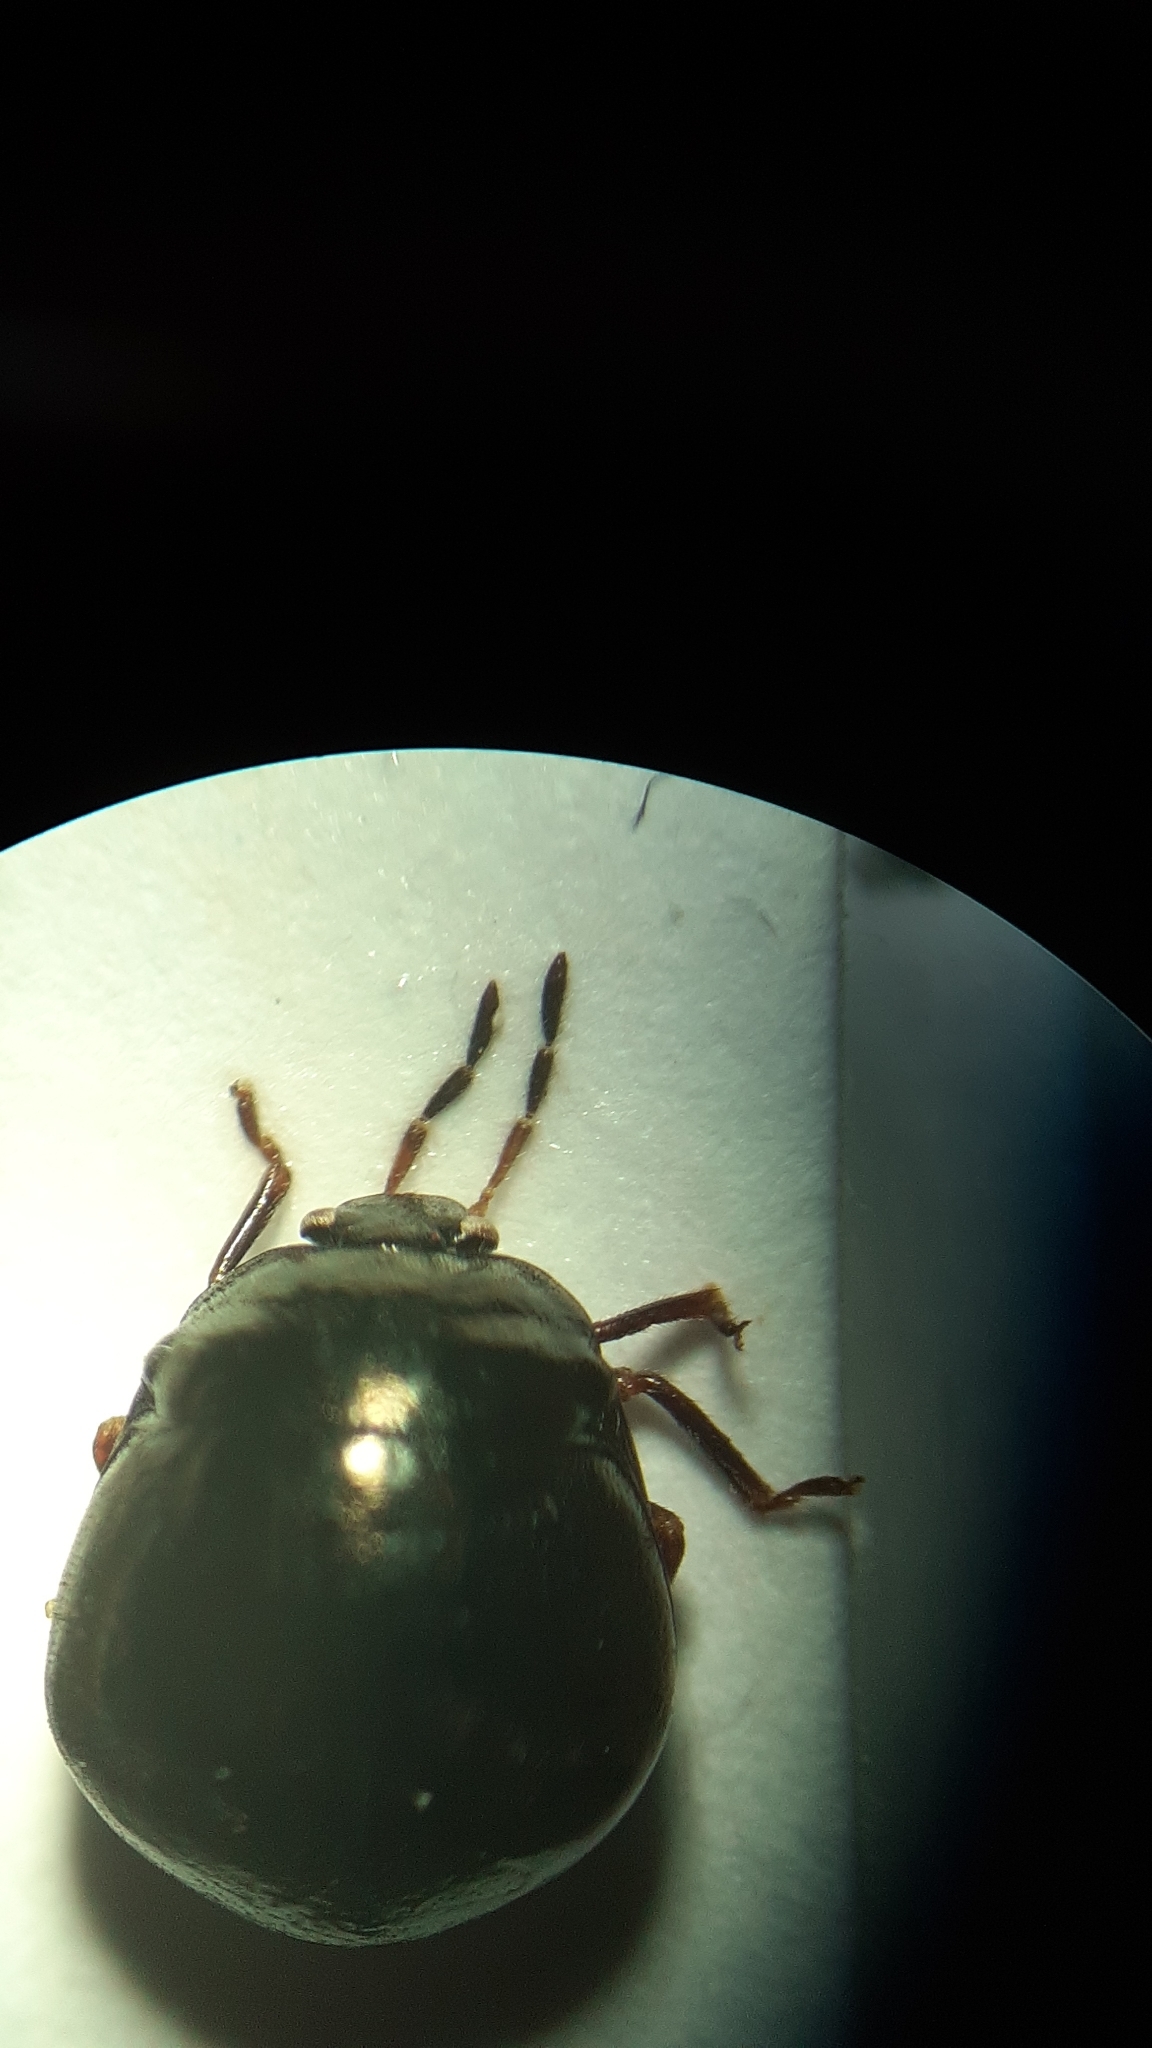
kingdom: Animalia
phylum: Arthropoda
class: Insecta
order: Hemiptera
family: Plataspidae
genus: Coptosoma
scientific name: Coptosoma scutellatum
